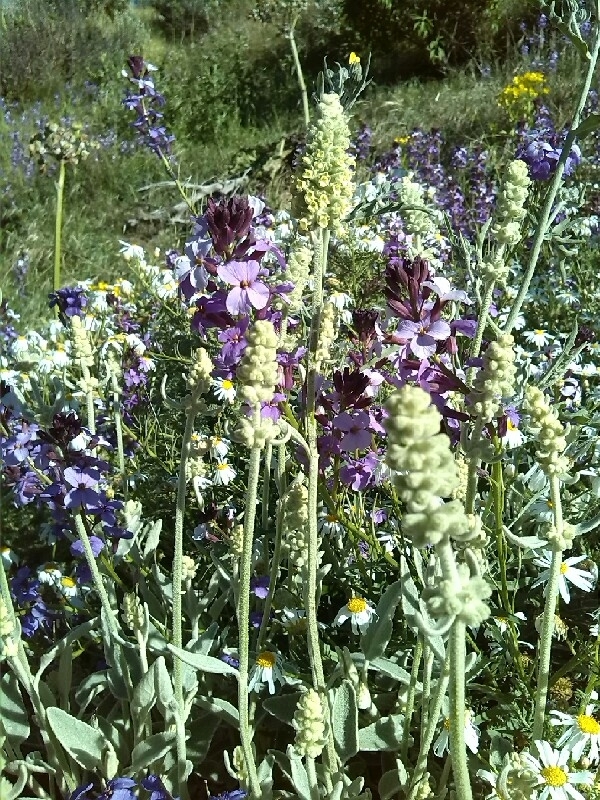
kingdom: Plantae
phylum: Tracheophyta
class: Magnoliopsida
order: Lamiales
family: Lamiaceae
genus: Sideritis
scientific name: Sideritis dasygnaphala
